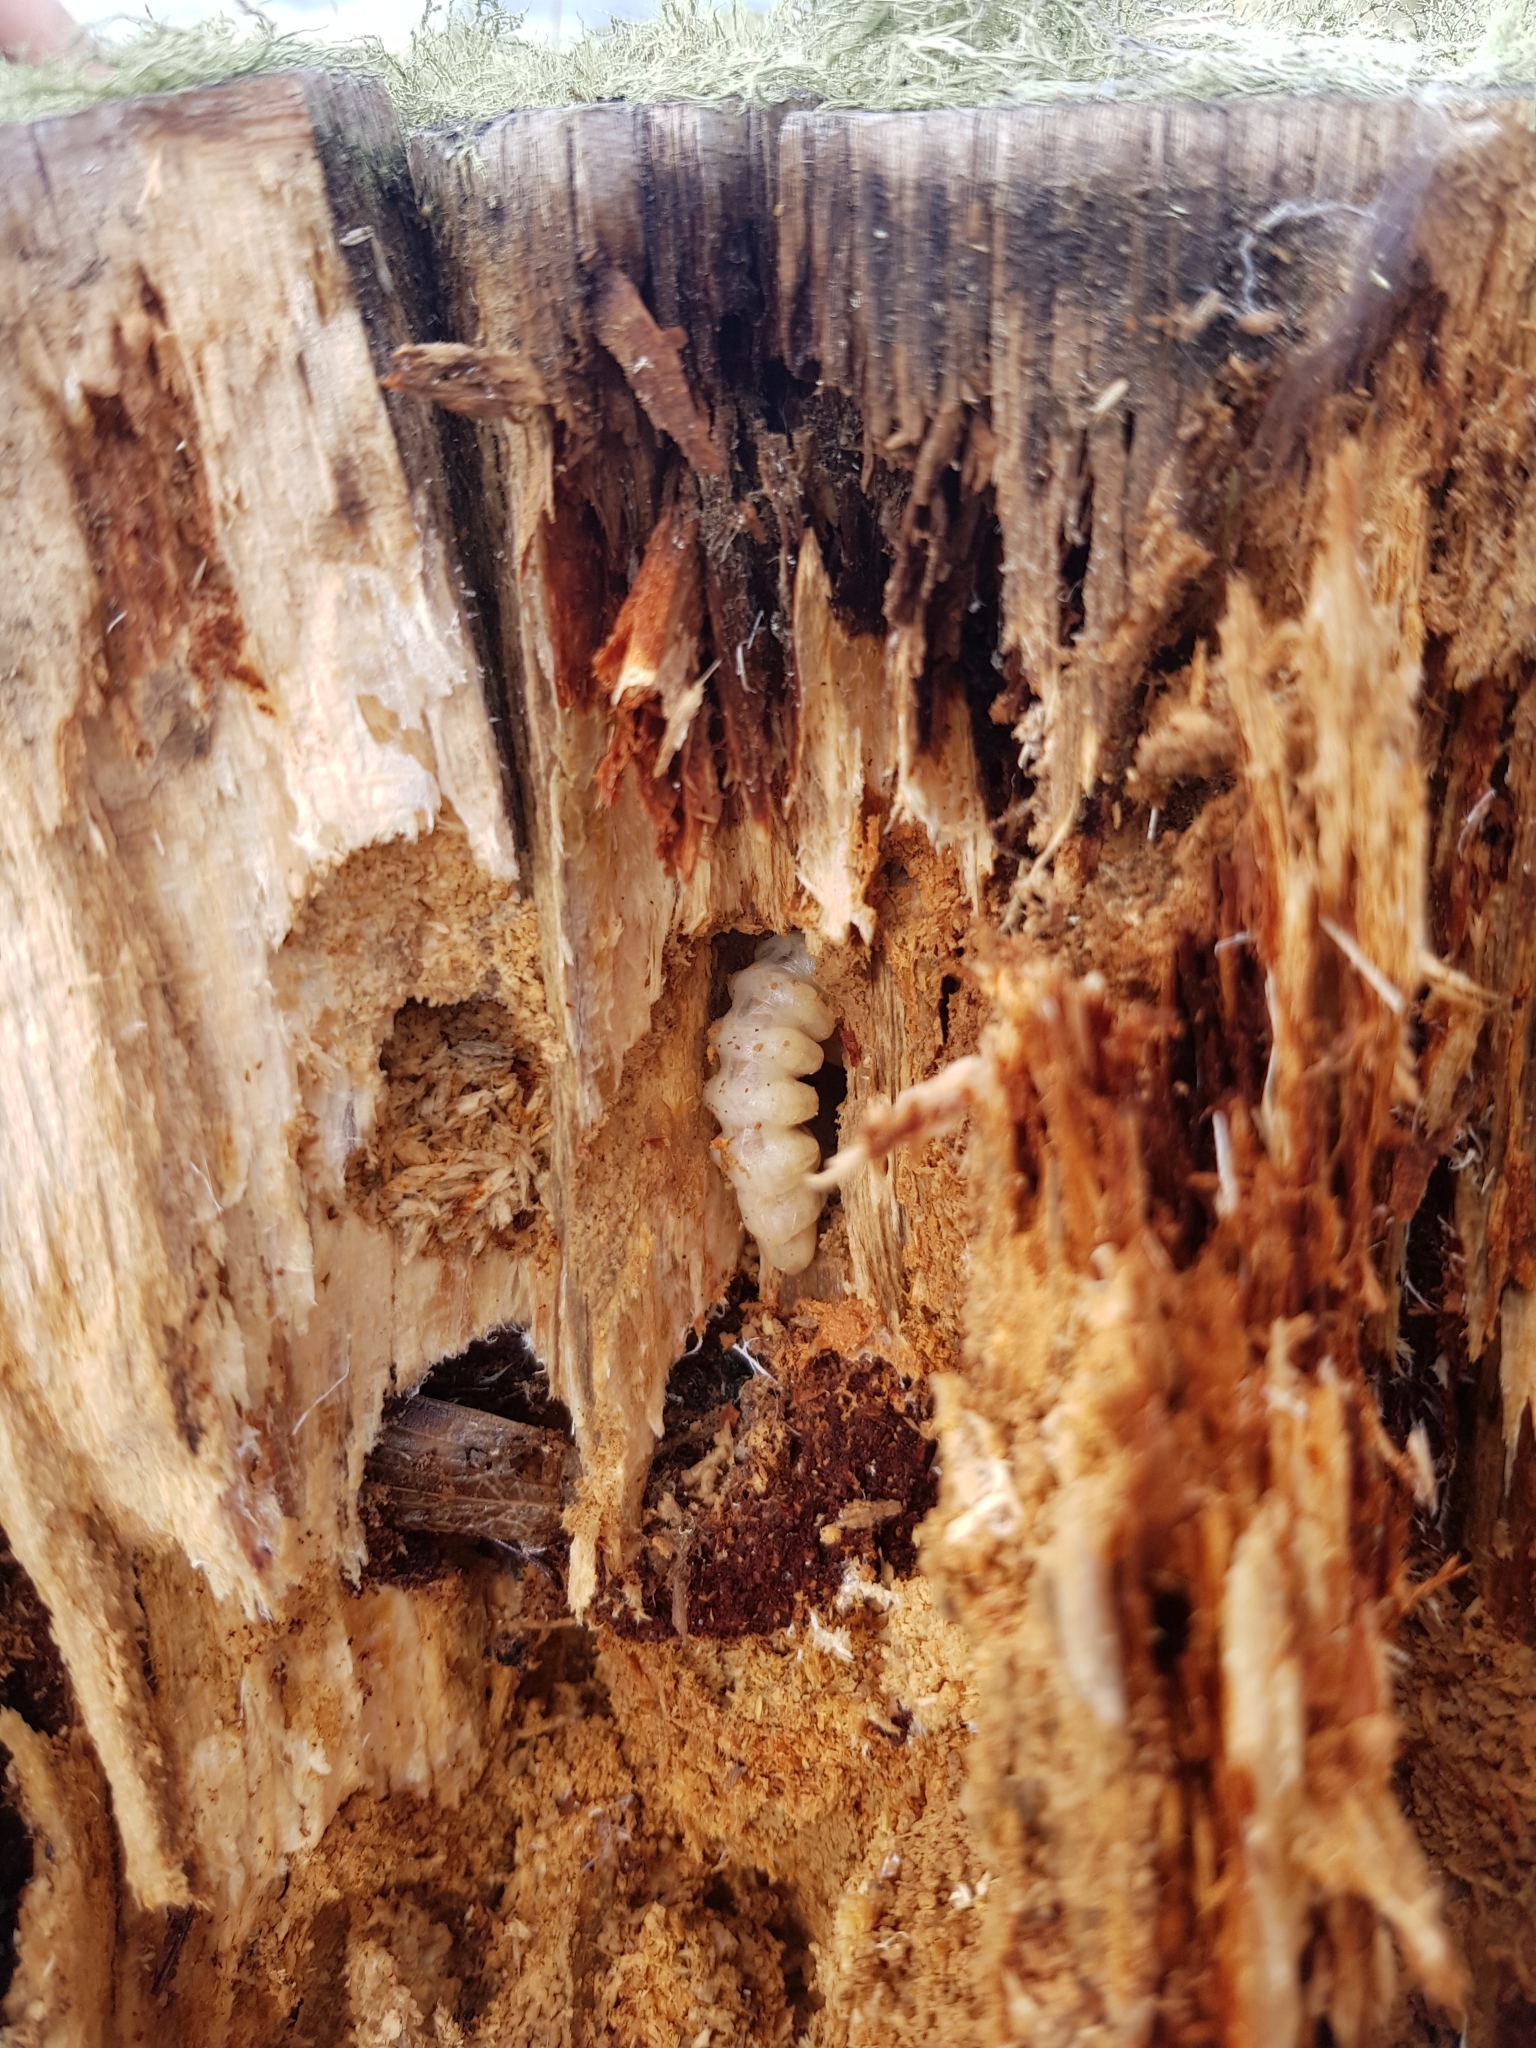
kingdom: Animalia
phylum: Arthropoda
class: Insecta
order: Coleoptera
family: Cerambycidae
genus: Prionoplus
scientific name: Prionoplus reticularis
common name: Huhu beetle
